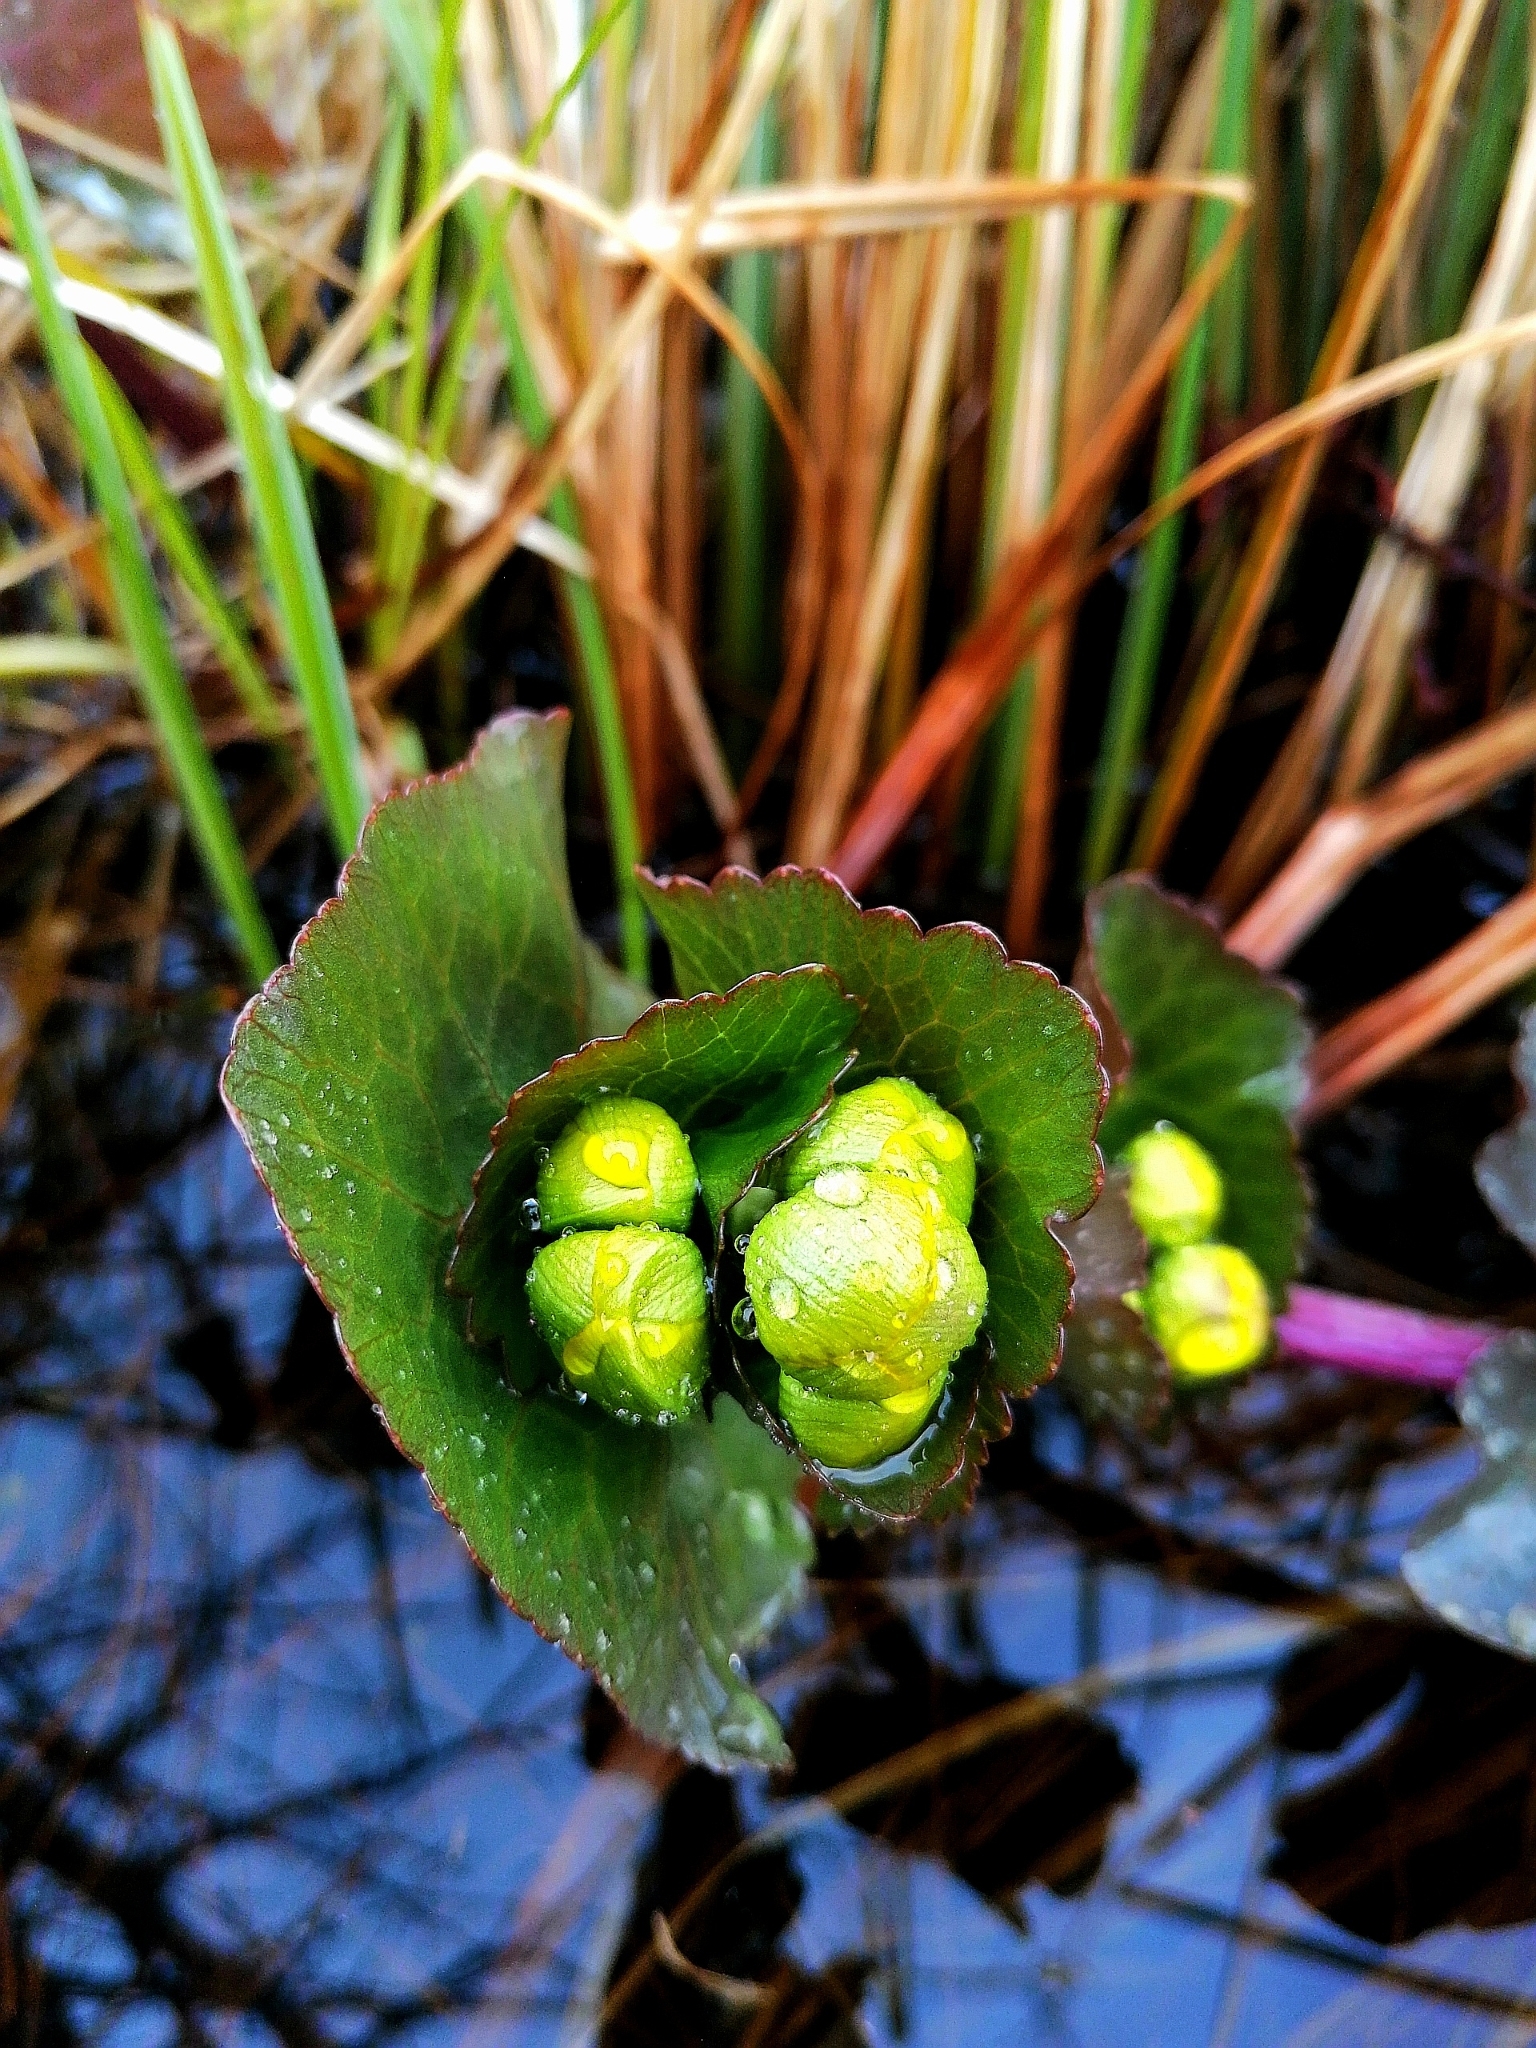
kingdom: Plantae
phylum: Tracheophyta
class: Magnoliopsida
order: Ranunculales
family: Ranunculaceae
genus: Caltha
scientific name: Caltha palustris
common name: Marsh marigold
